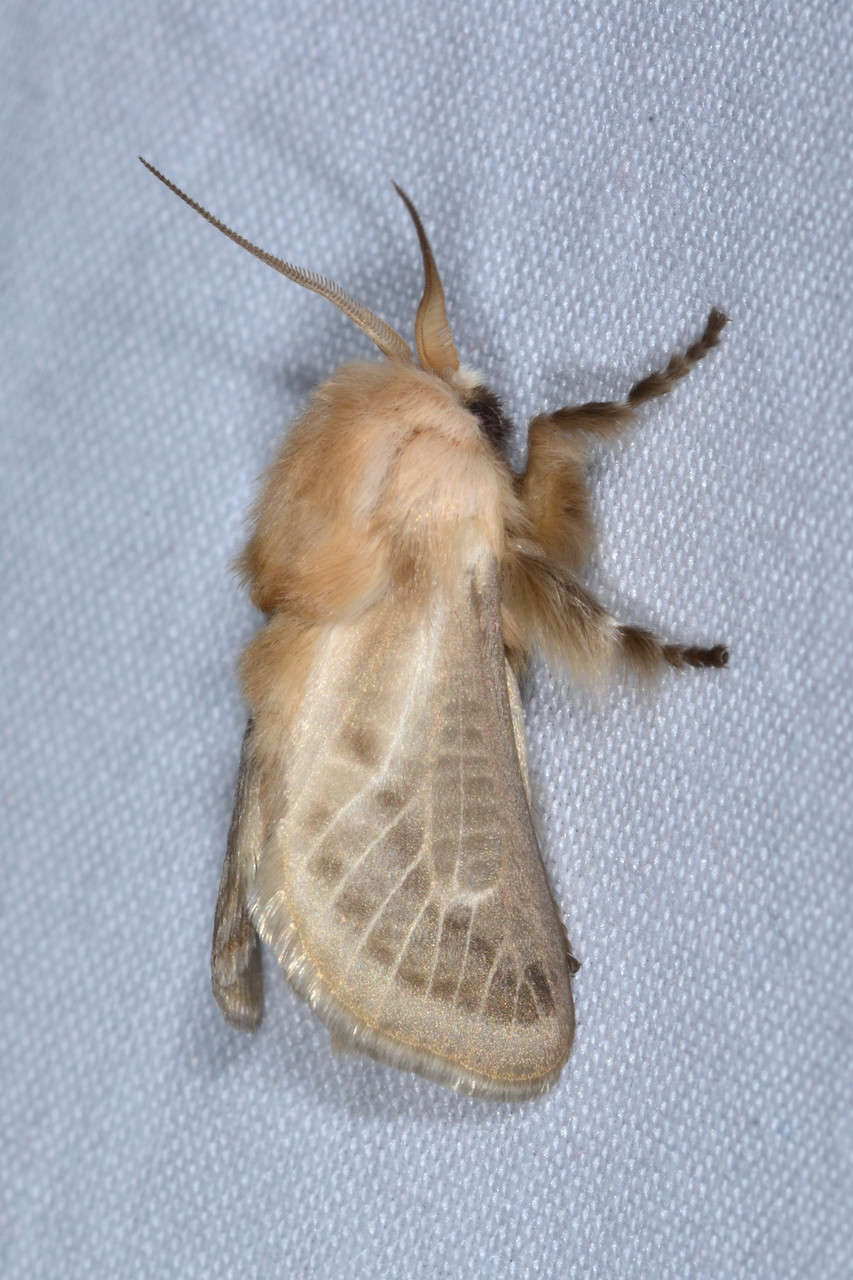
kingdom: Animalia
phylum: Arthropoda
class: Insecta
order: Lepidoptera
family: Limacodidae
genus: Doratifera
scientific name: Doratifera pinguis
